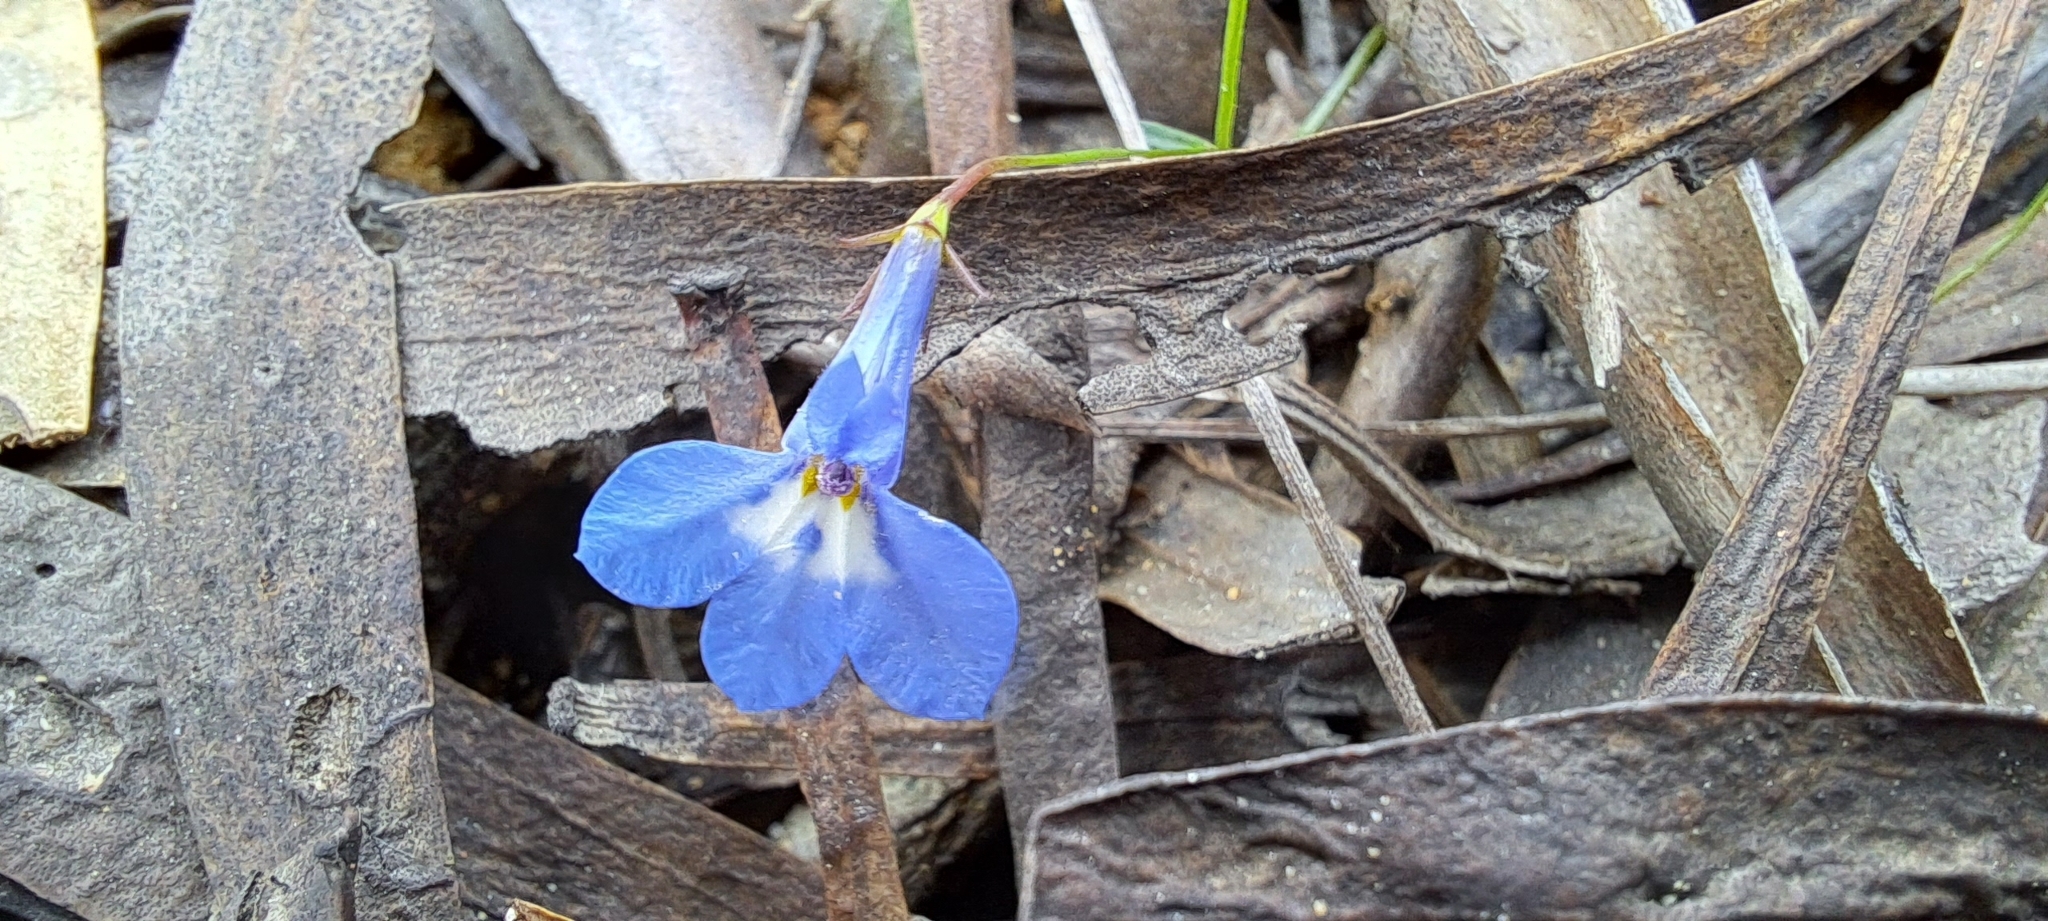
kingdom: Plantae
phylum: Tracheophyta
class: Magnoliopsida
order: Asterales
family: Campanulaceae
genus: Lobelia
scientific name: Lobelia erinus
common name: Edging lobelia
